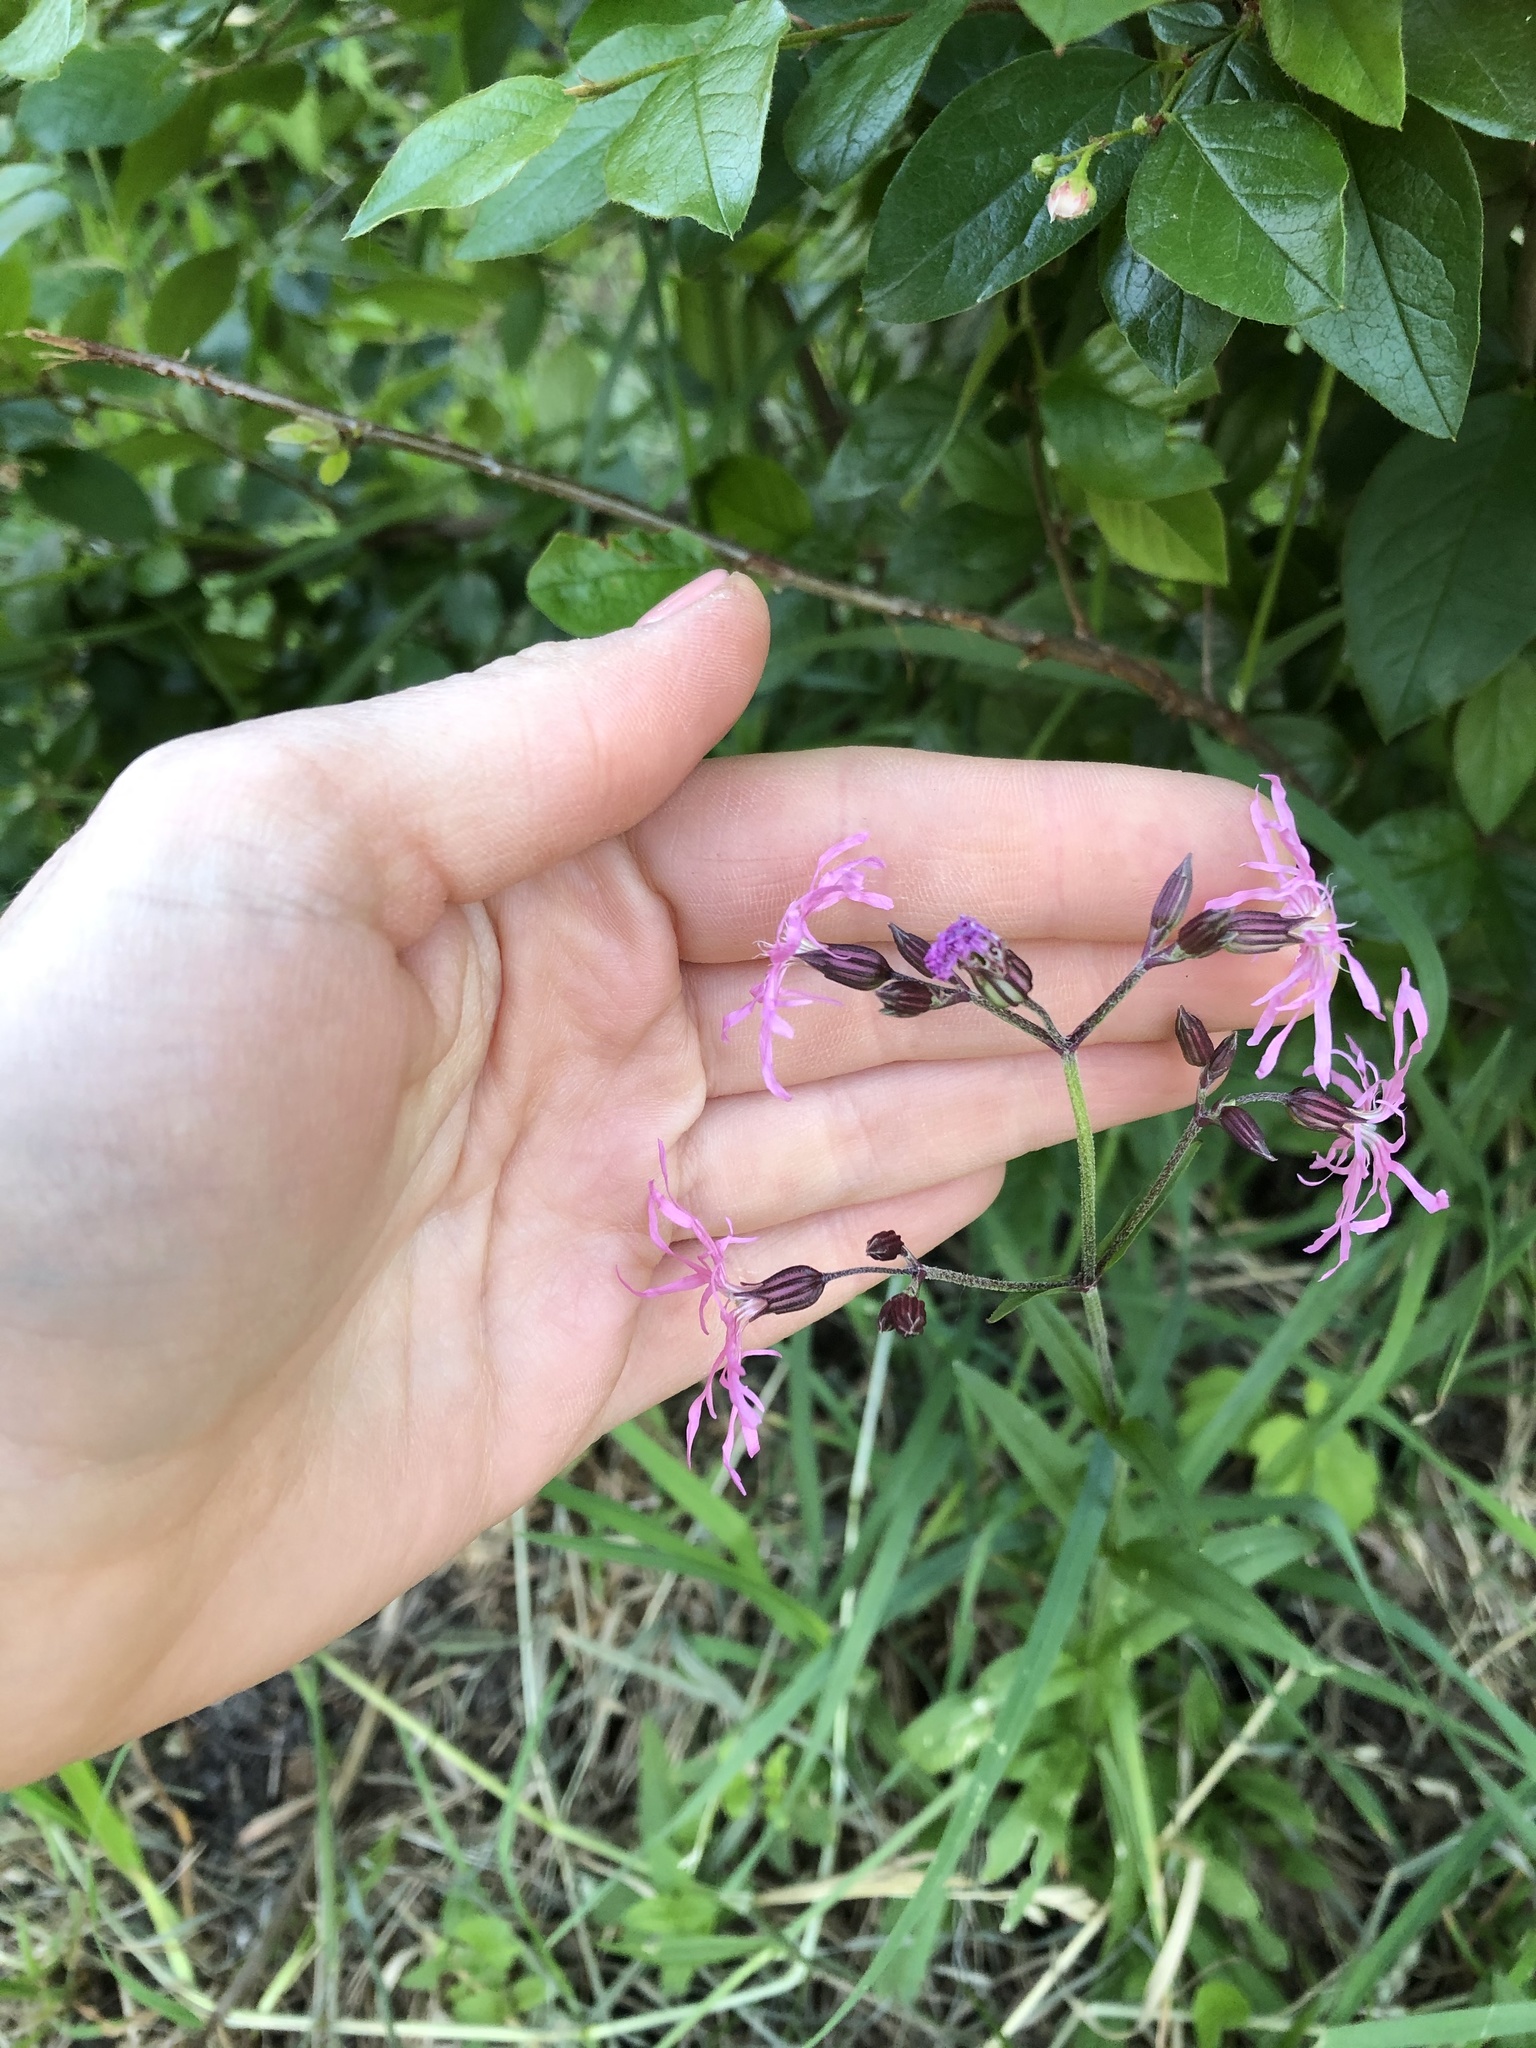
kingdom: Plantae
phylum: Tracheophyta
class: Magnoliopsida
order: Caryophyllales
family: Caryophyllaceae
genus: Silene
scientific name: Silene flos-cuculi
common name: Ragged-robin
